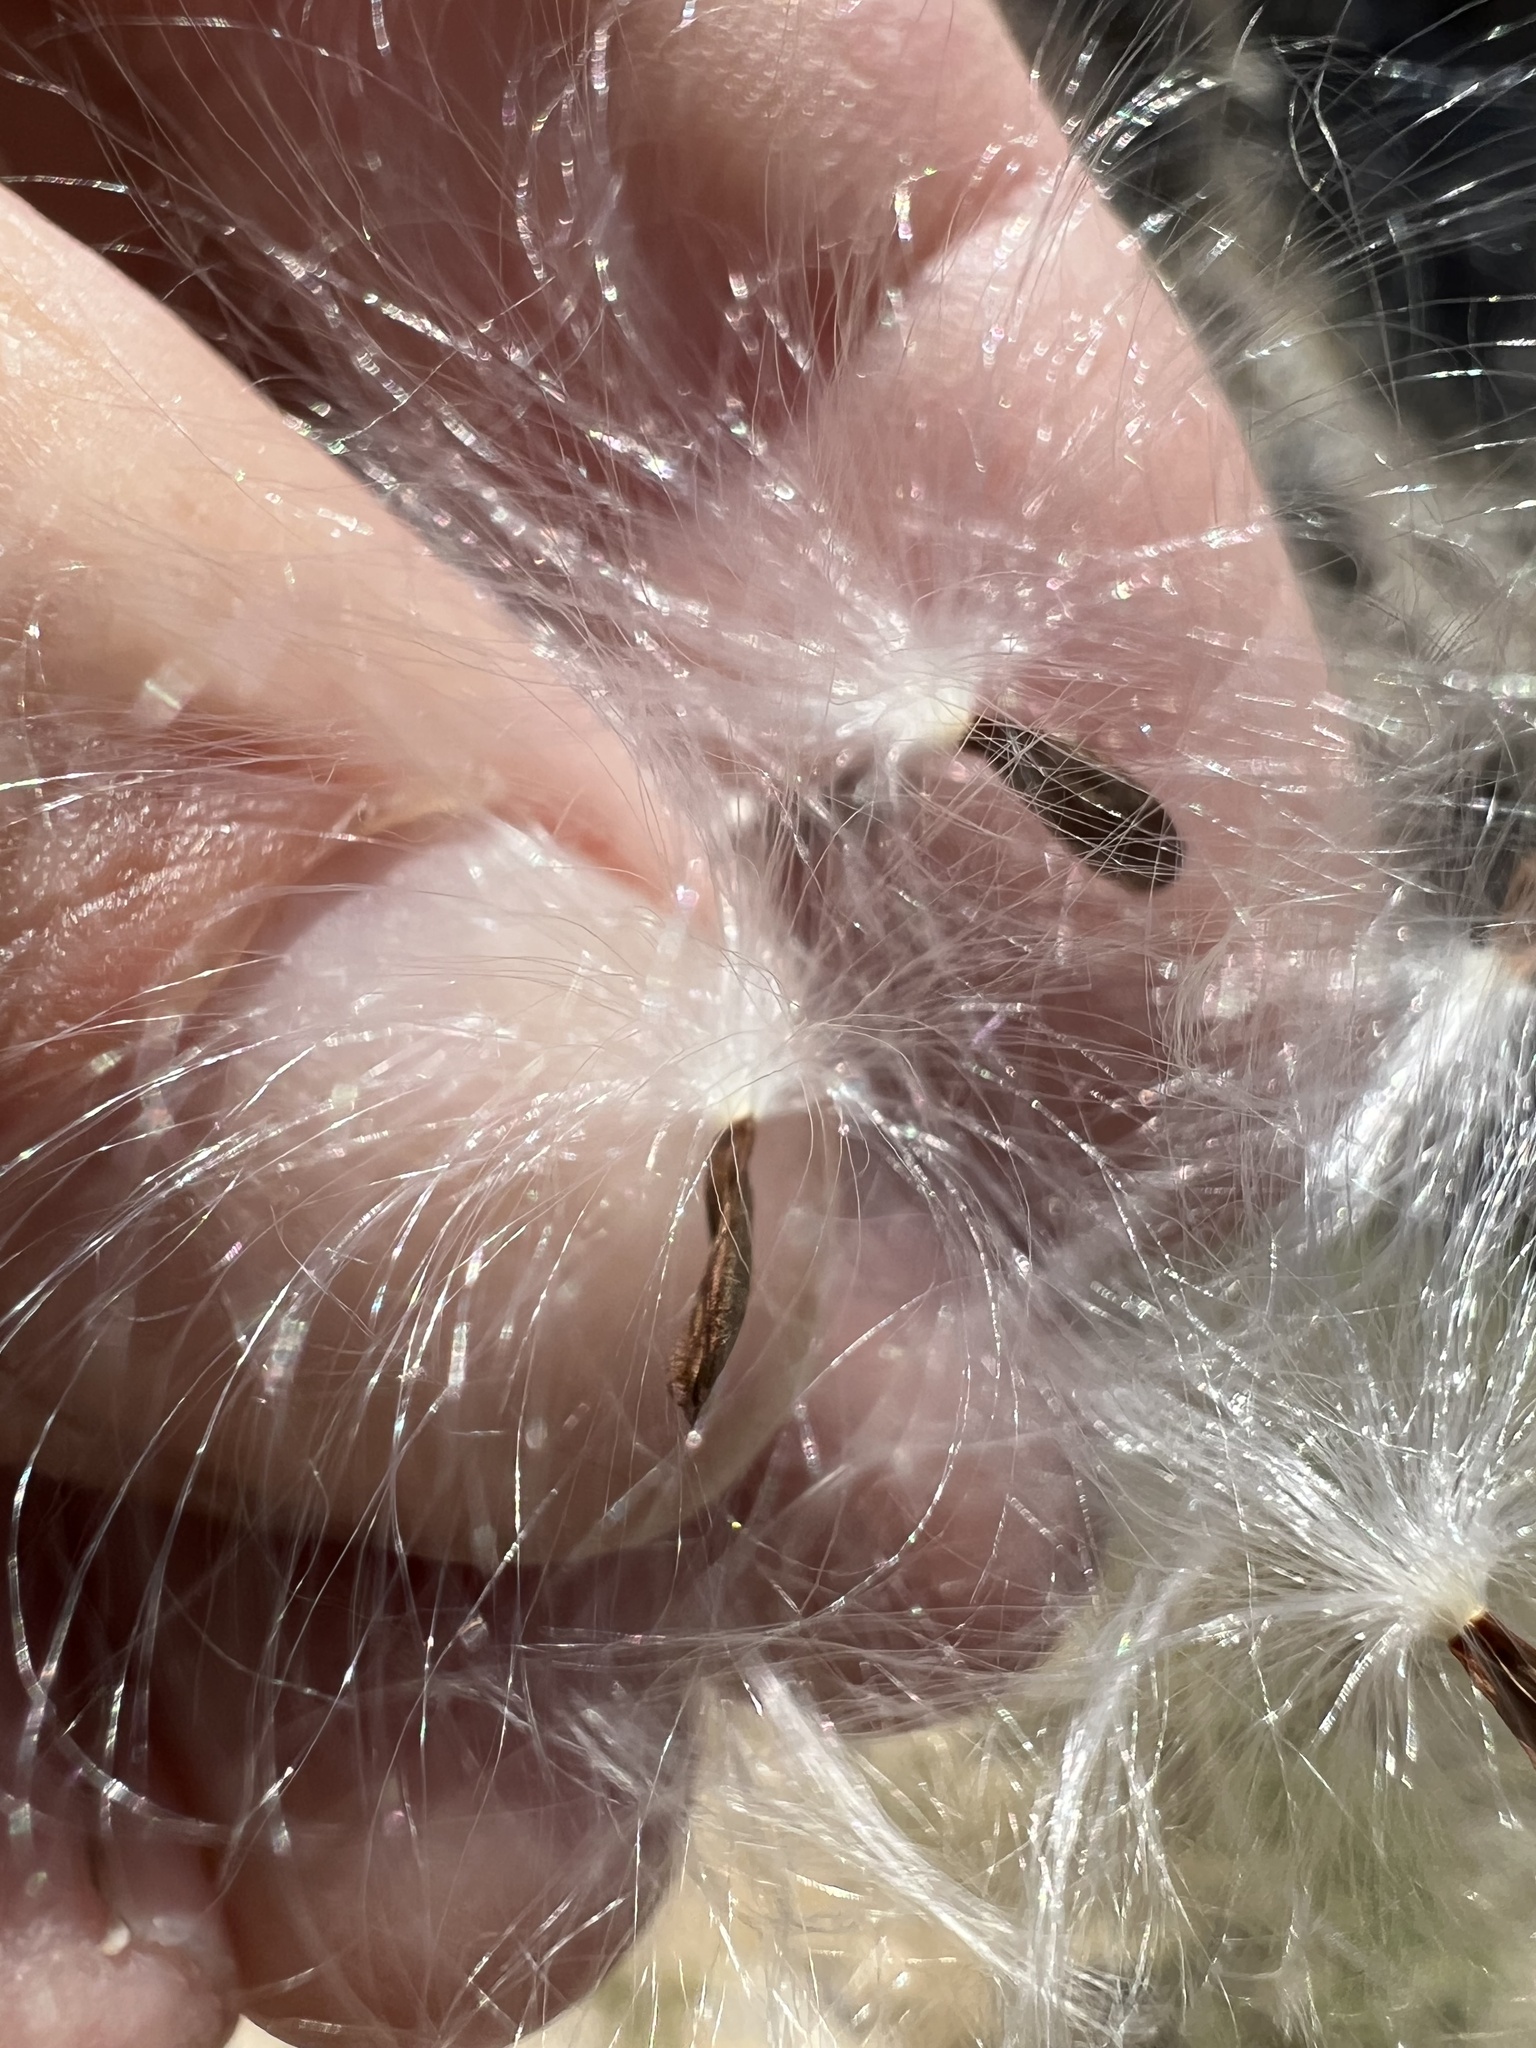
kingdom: Plantae
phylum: Tracheophyta
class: Magnoliopsida
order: Gentianales
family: Apocynaceae
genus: Asclepias
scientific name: Asclepias fascicularis
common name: Mexican milkweed
